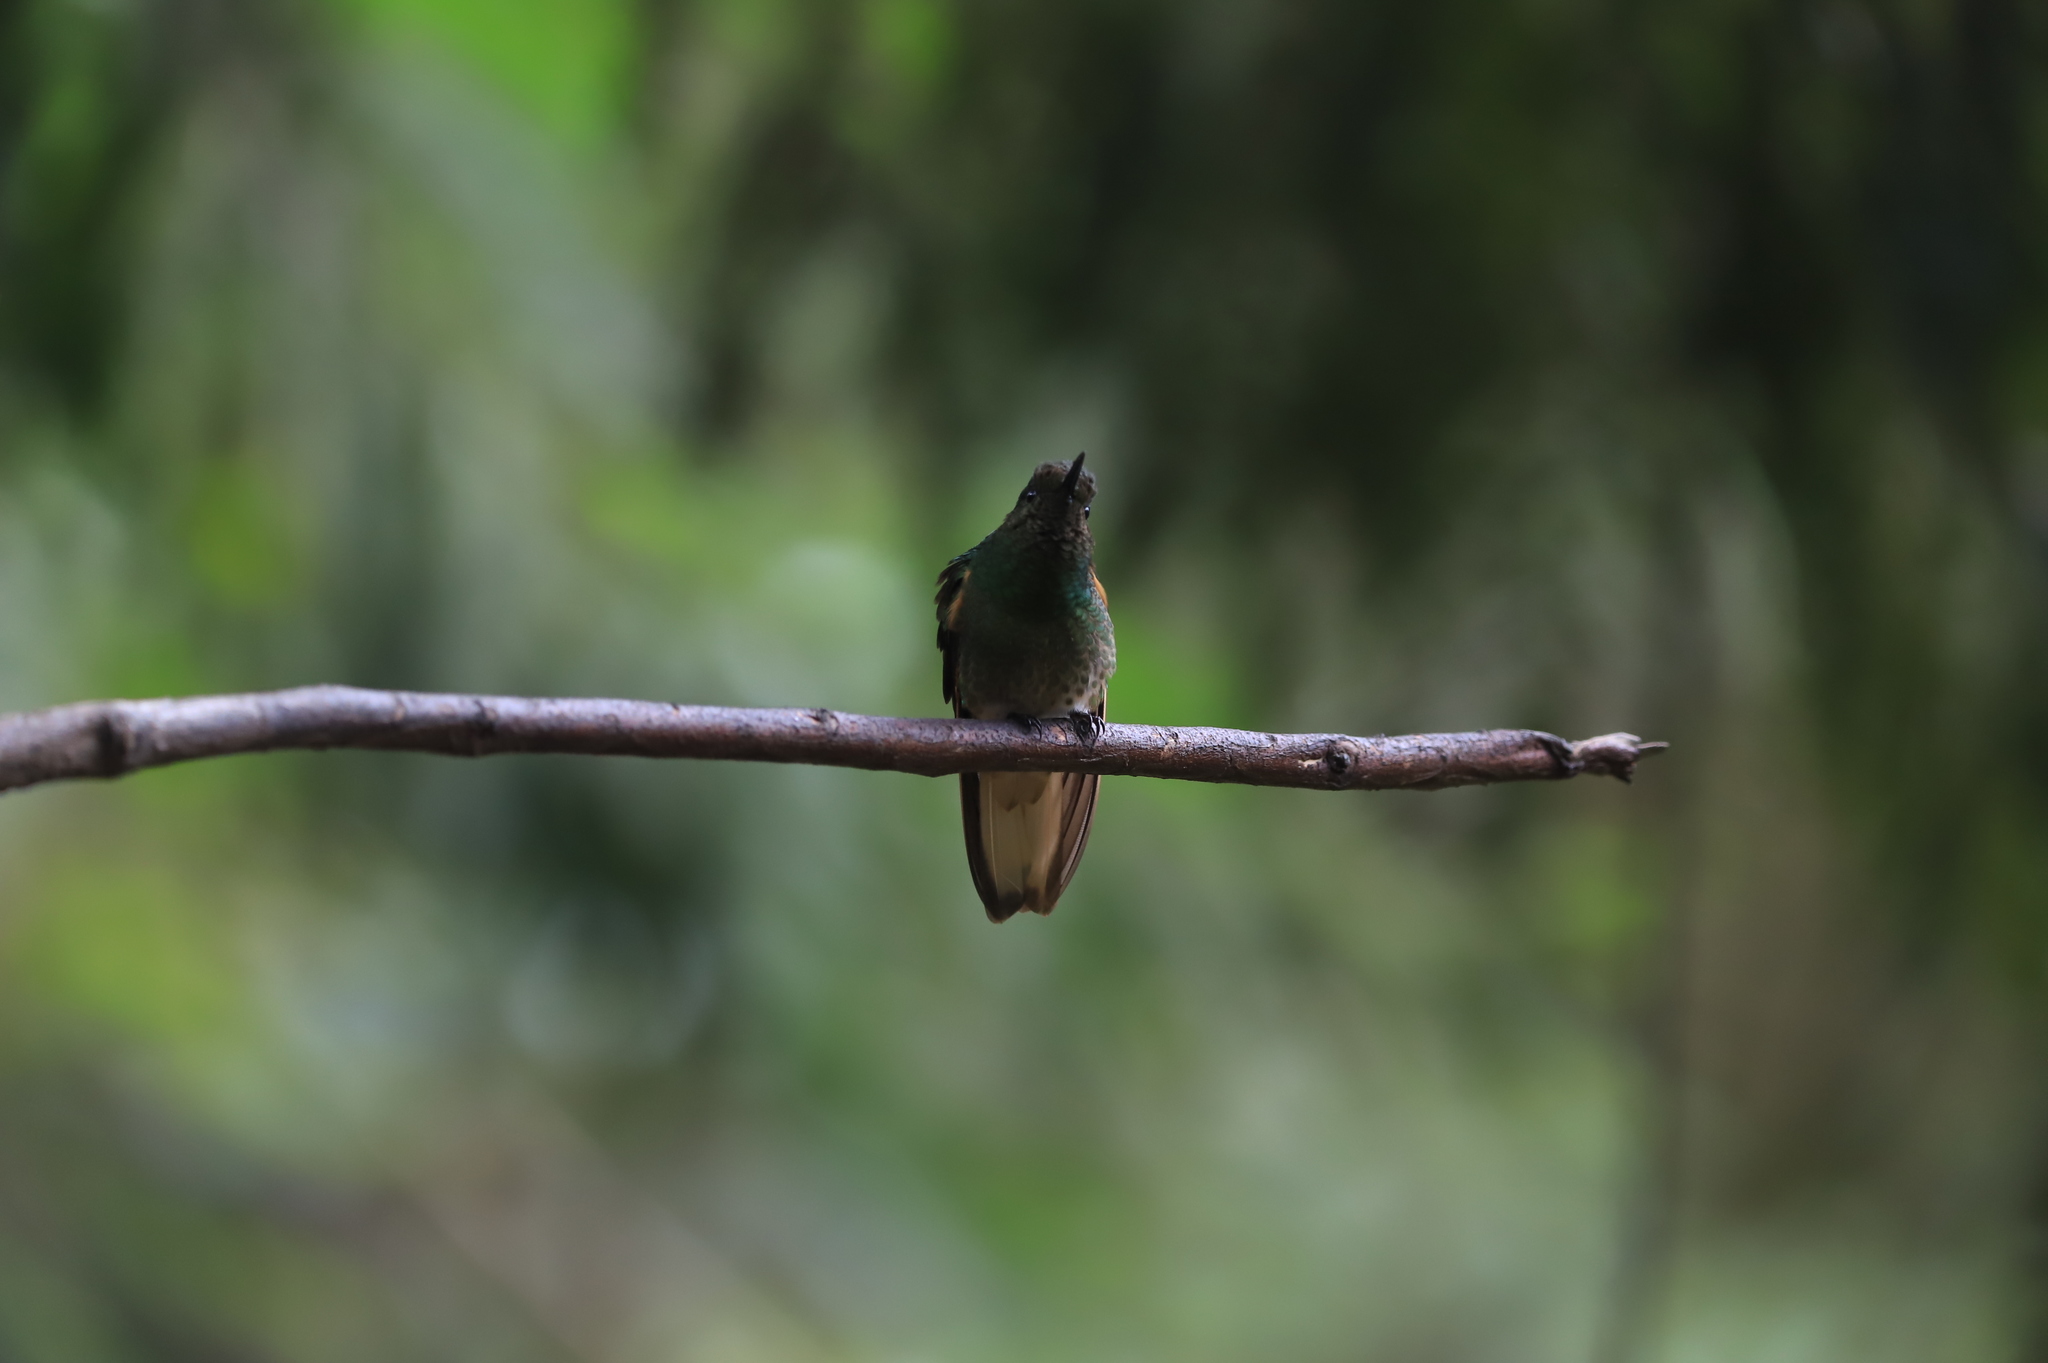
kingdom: Animalia
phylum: Chordata
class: Aves
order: Apodiformes
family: Trochilidae
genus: Boissonneaua
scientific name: Boissonneaua flavescens
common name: Buff-tailed coronet
